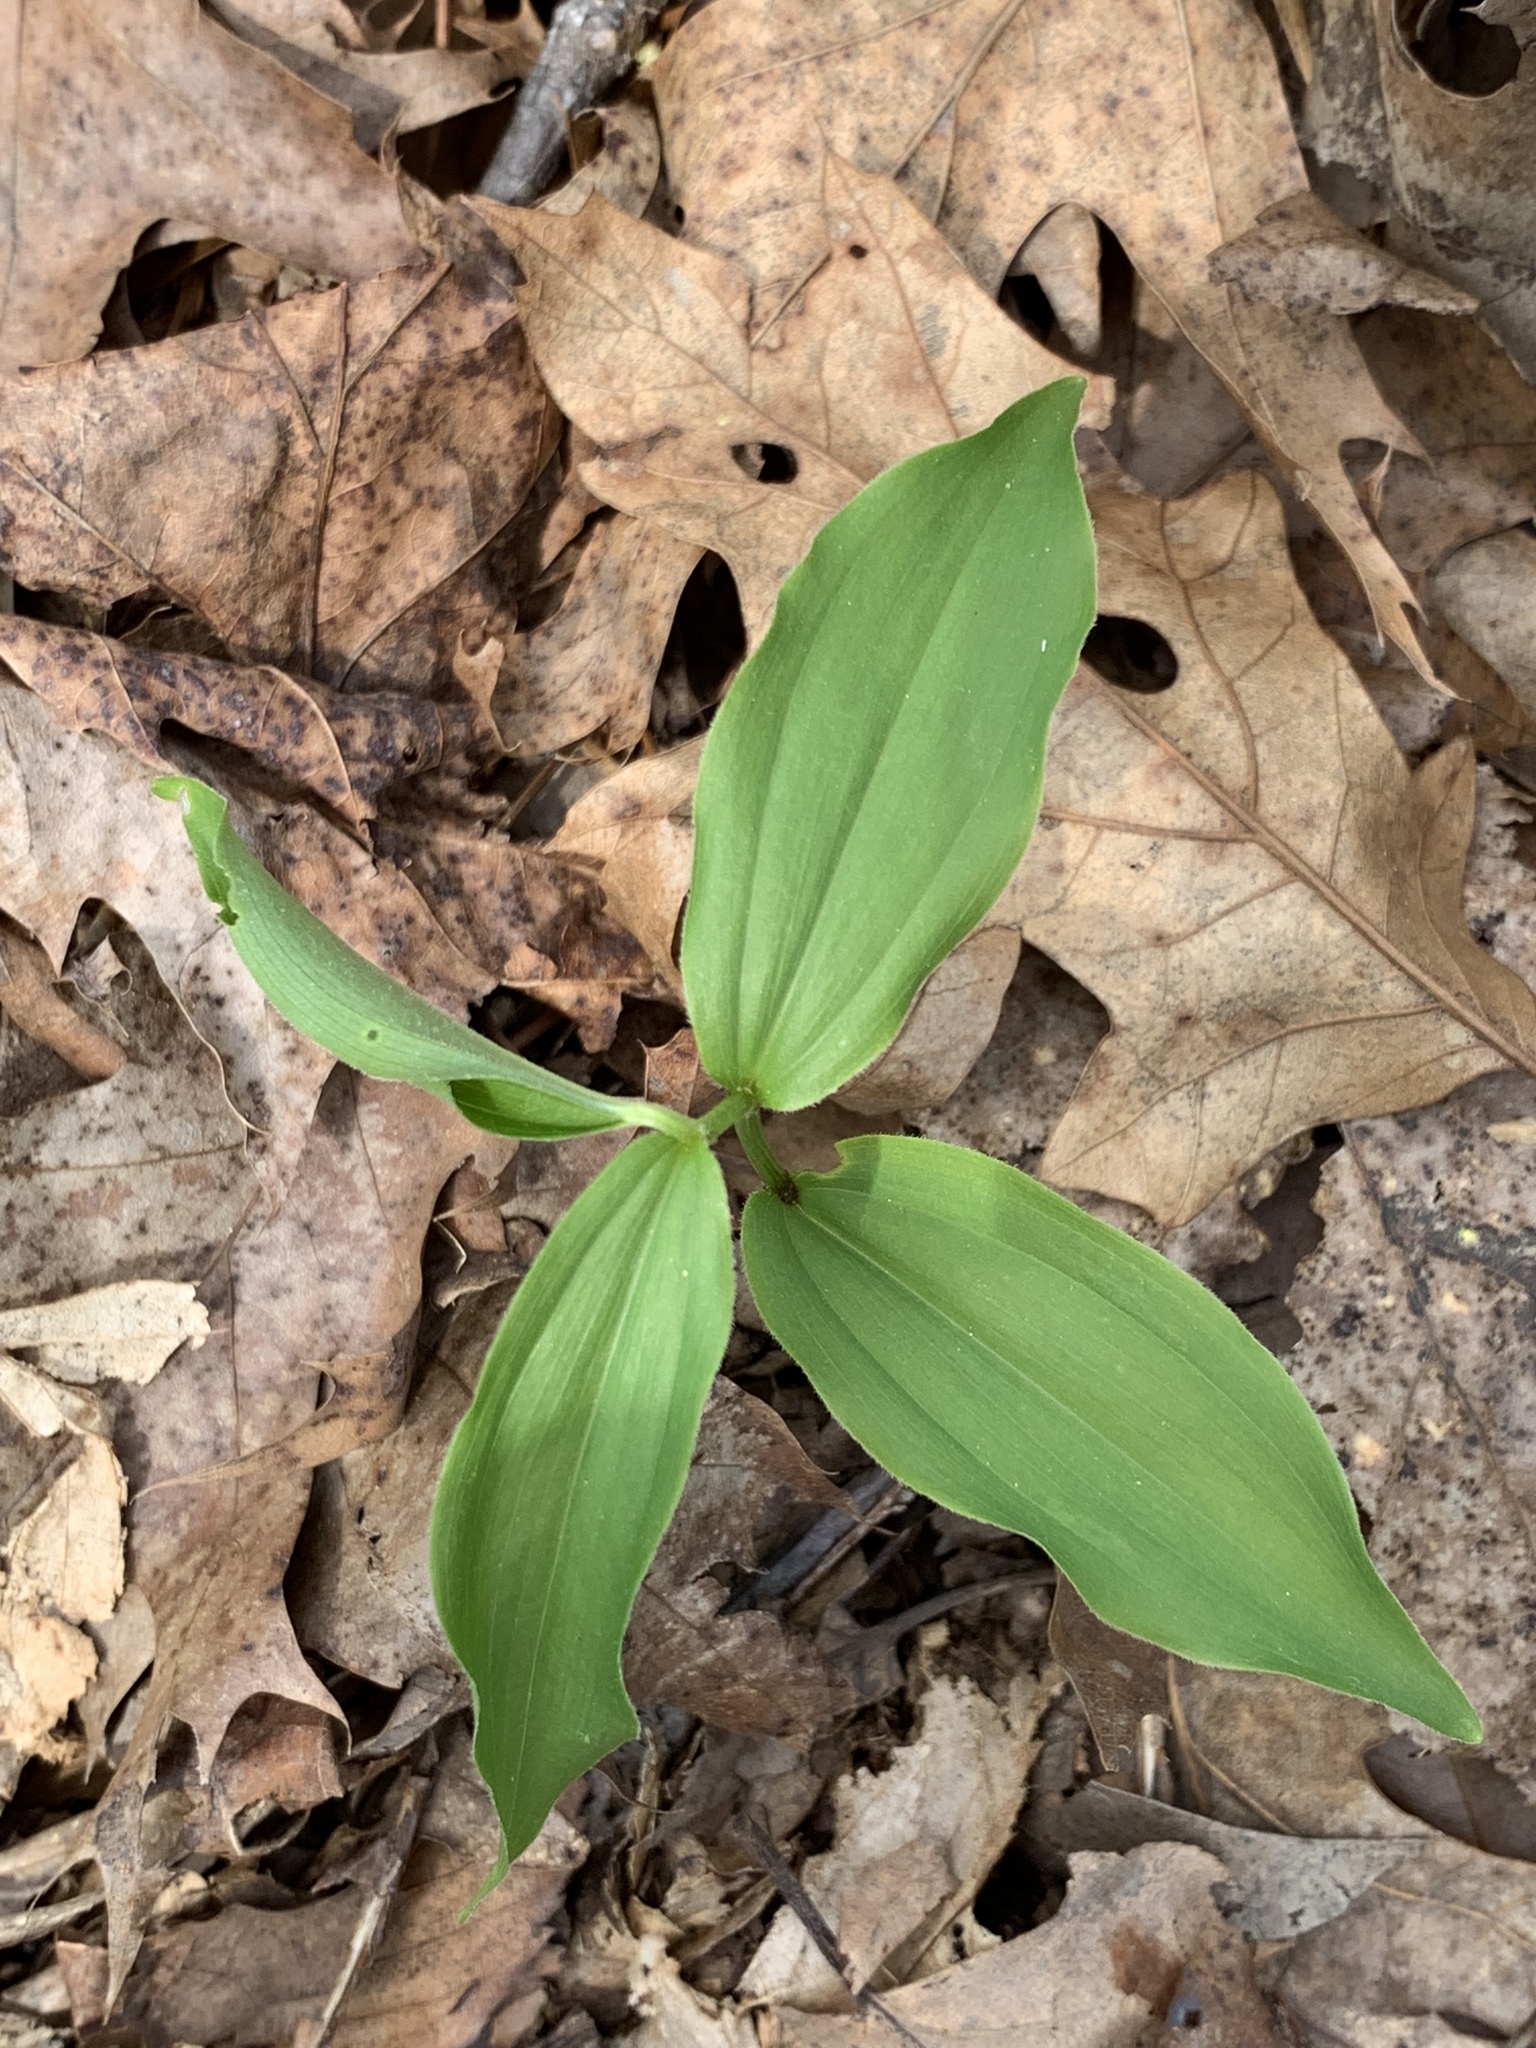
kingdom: Plantae
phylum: Tracheophyta
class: Liliopsida
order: Asparagales
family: Asparagaceae
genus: Maianthemum
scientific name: Maianthemum racemosum
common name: False spikenard
